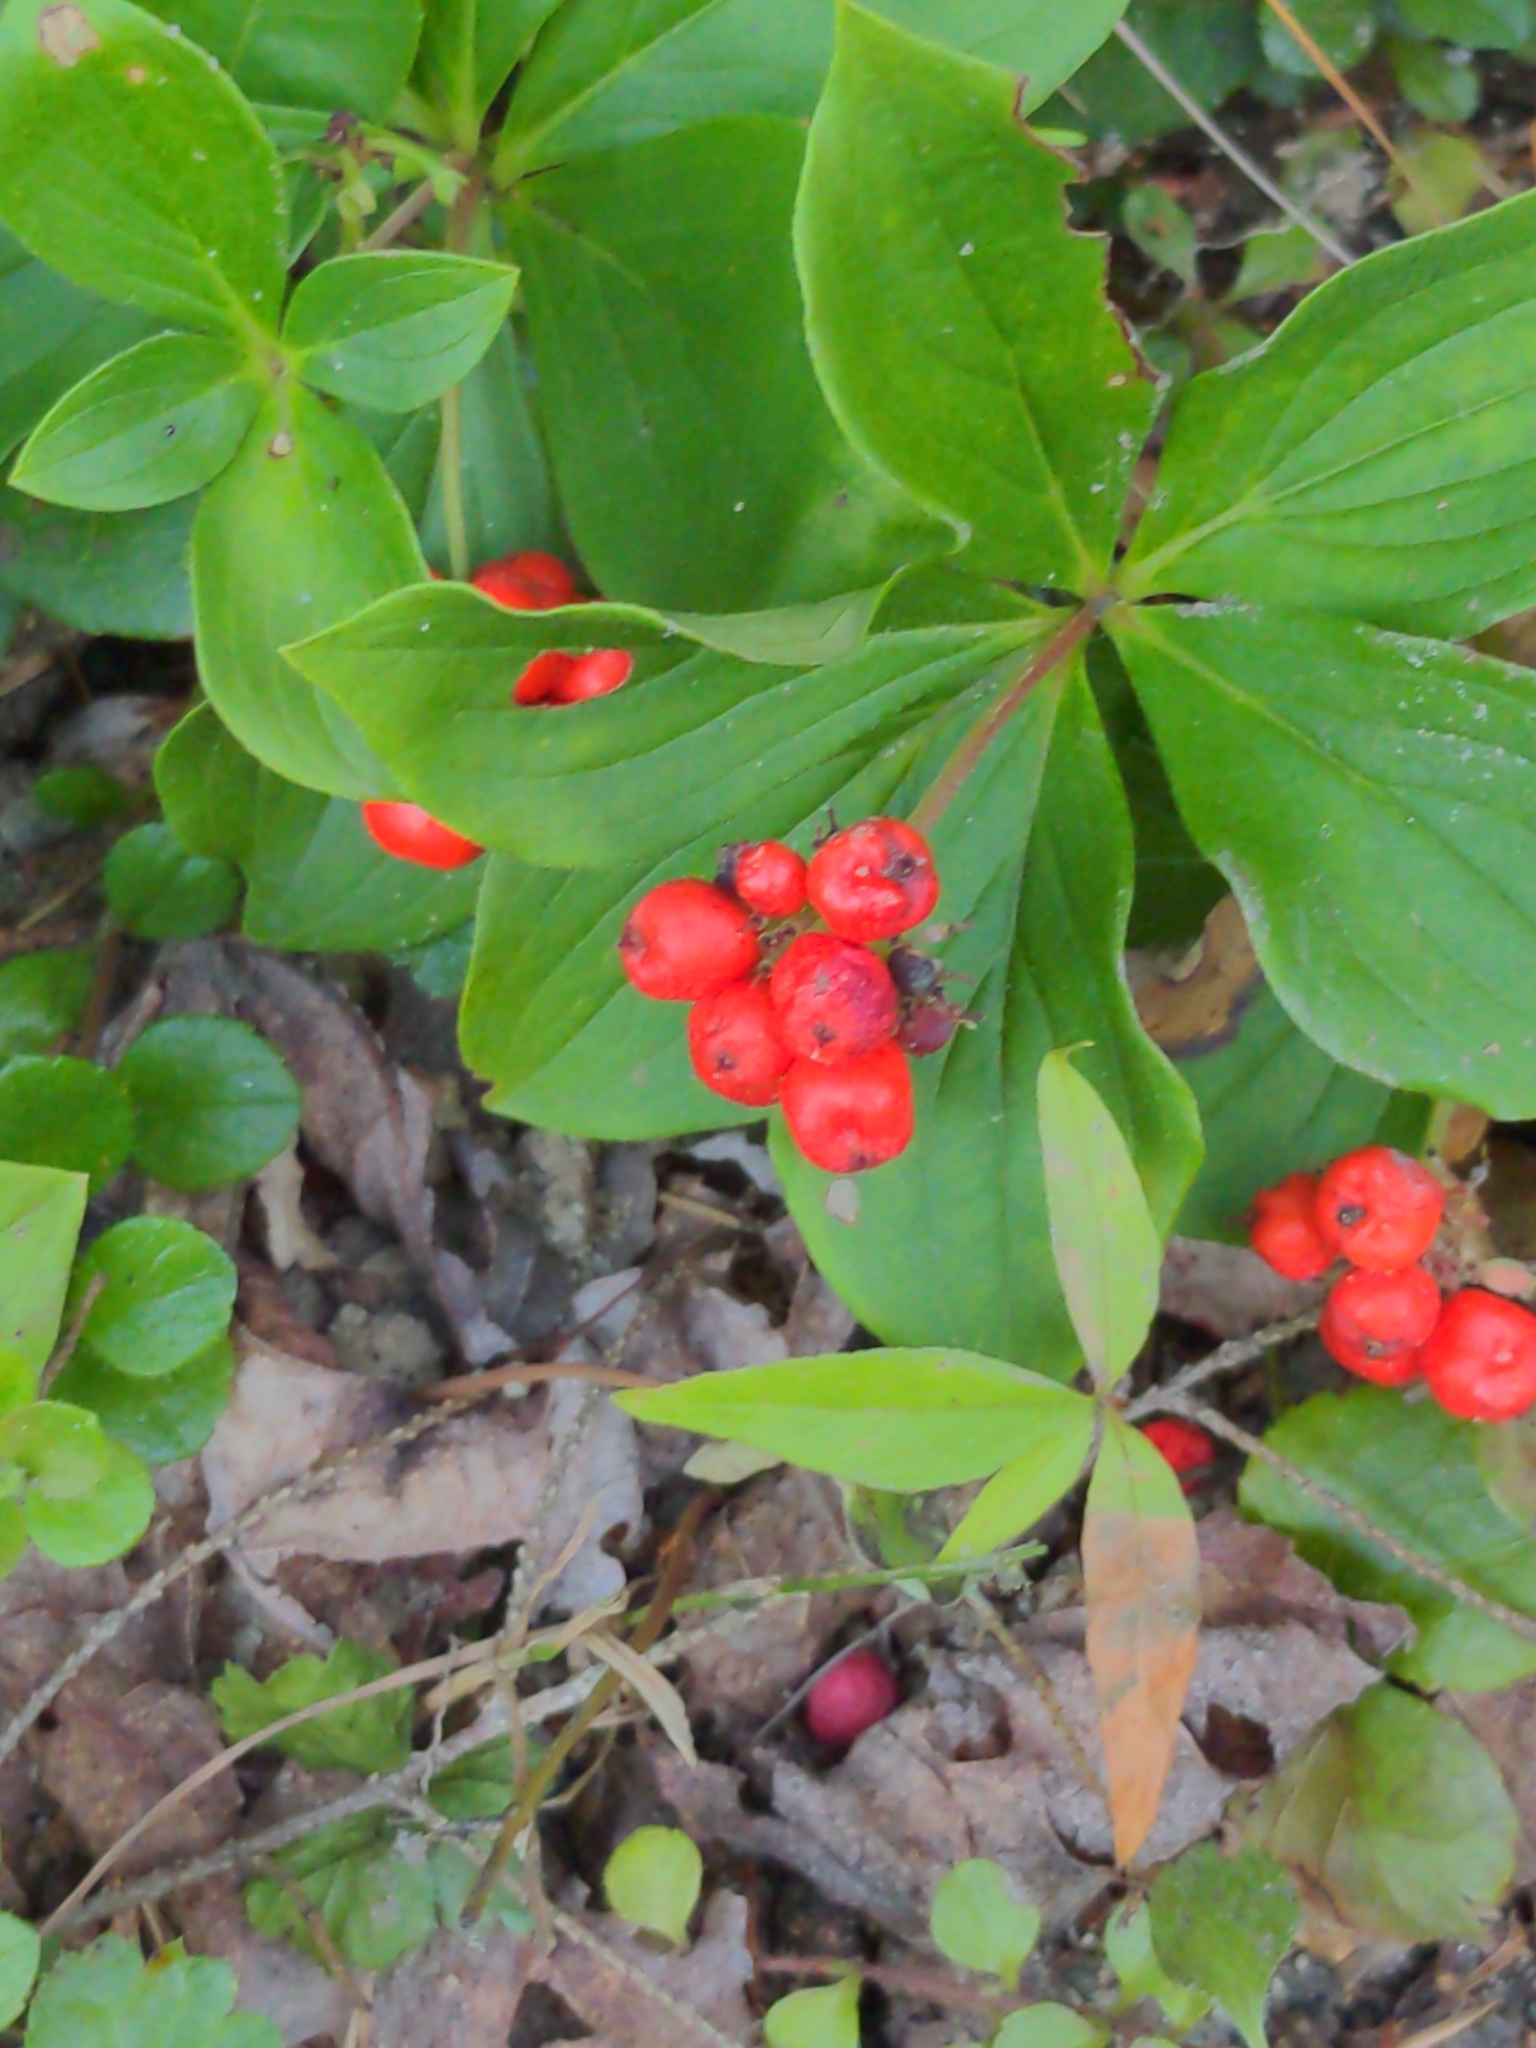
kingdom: Plantae
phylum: Tracheophyta
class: Magnoliopsida
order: Cornales
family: Cornaceae
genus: Cornus
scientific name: Cornus canadensis
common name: Creeping dogwood
